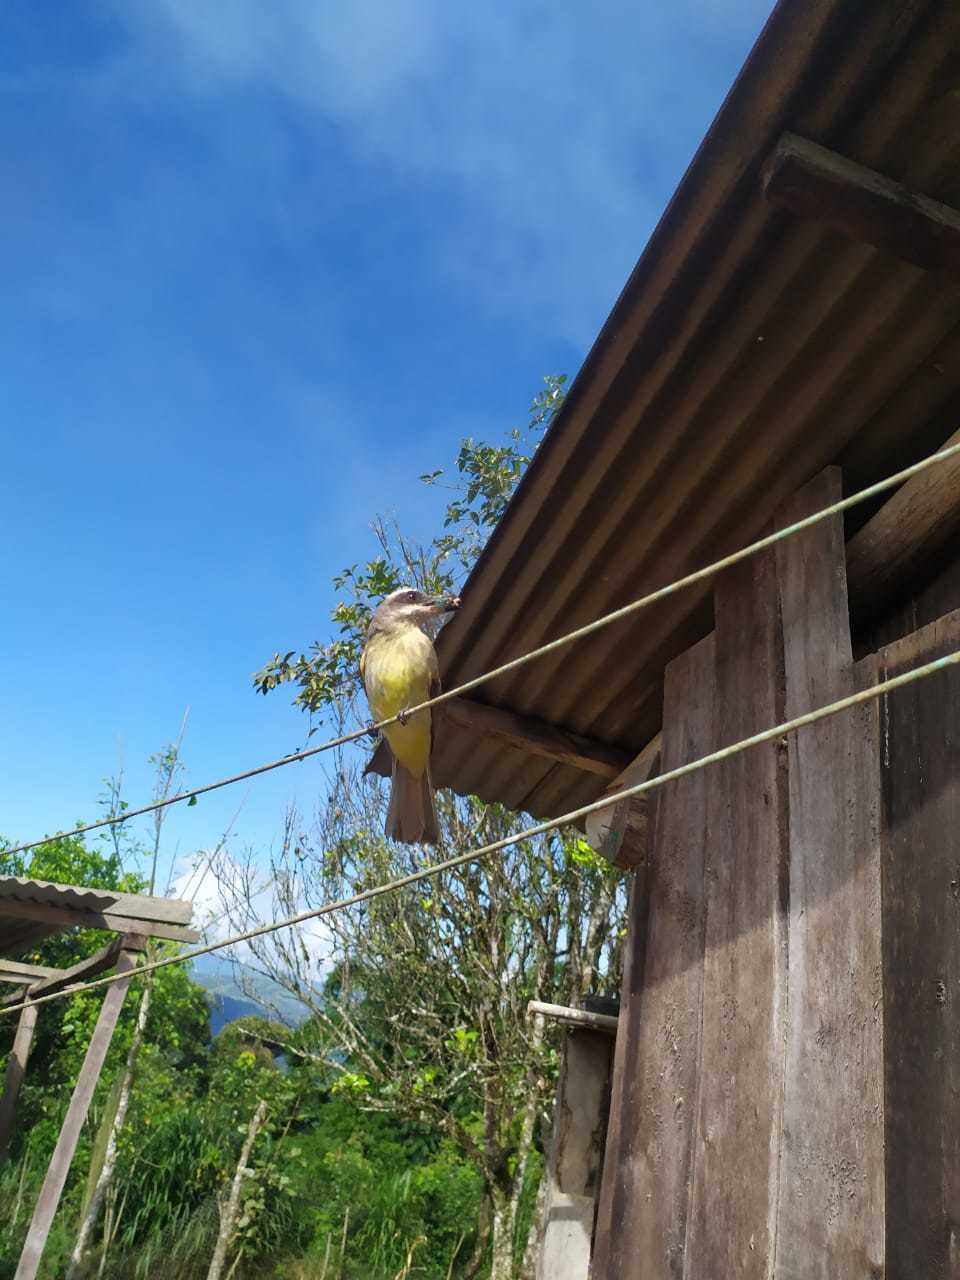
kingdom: Animalia
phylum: Chordata
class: Aves
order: Passeriformes
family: Tyrannidae
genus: Myiodynastes
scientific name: Myiodynastes hemichrysus
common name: Golden-bellied flycatcher
